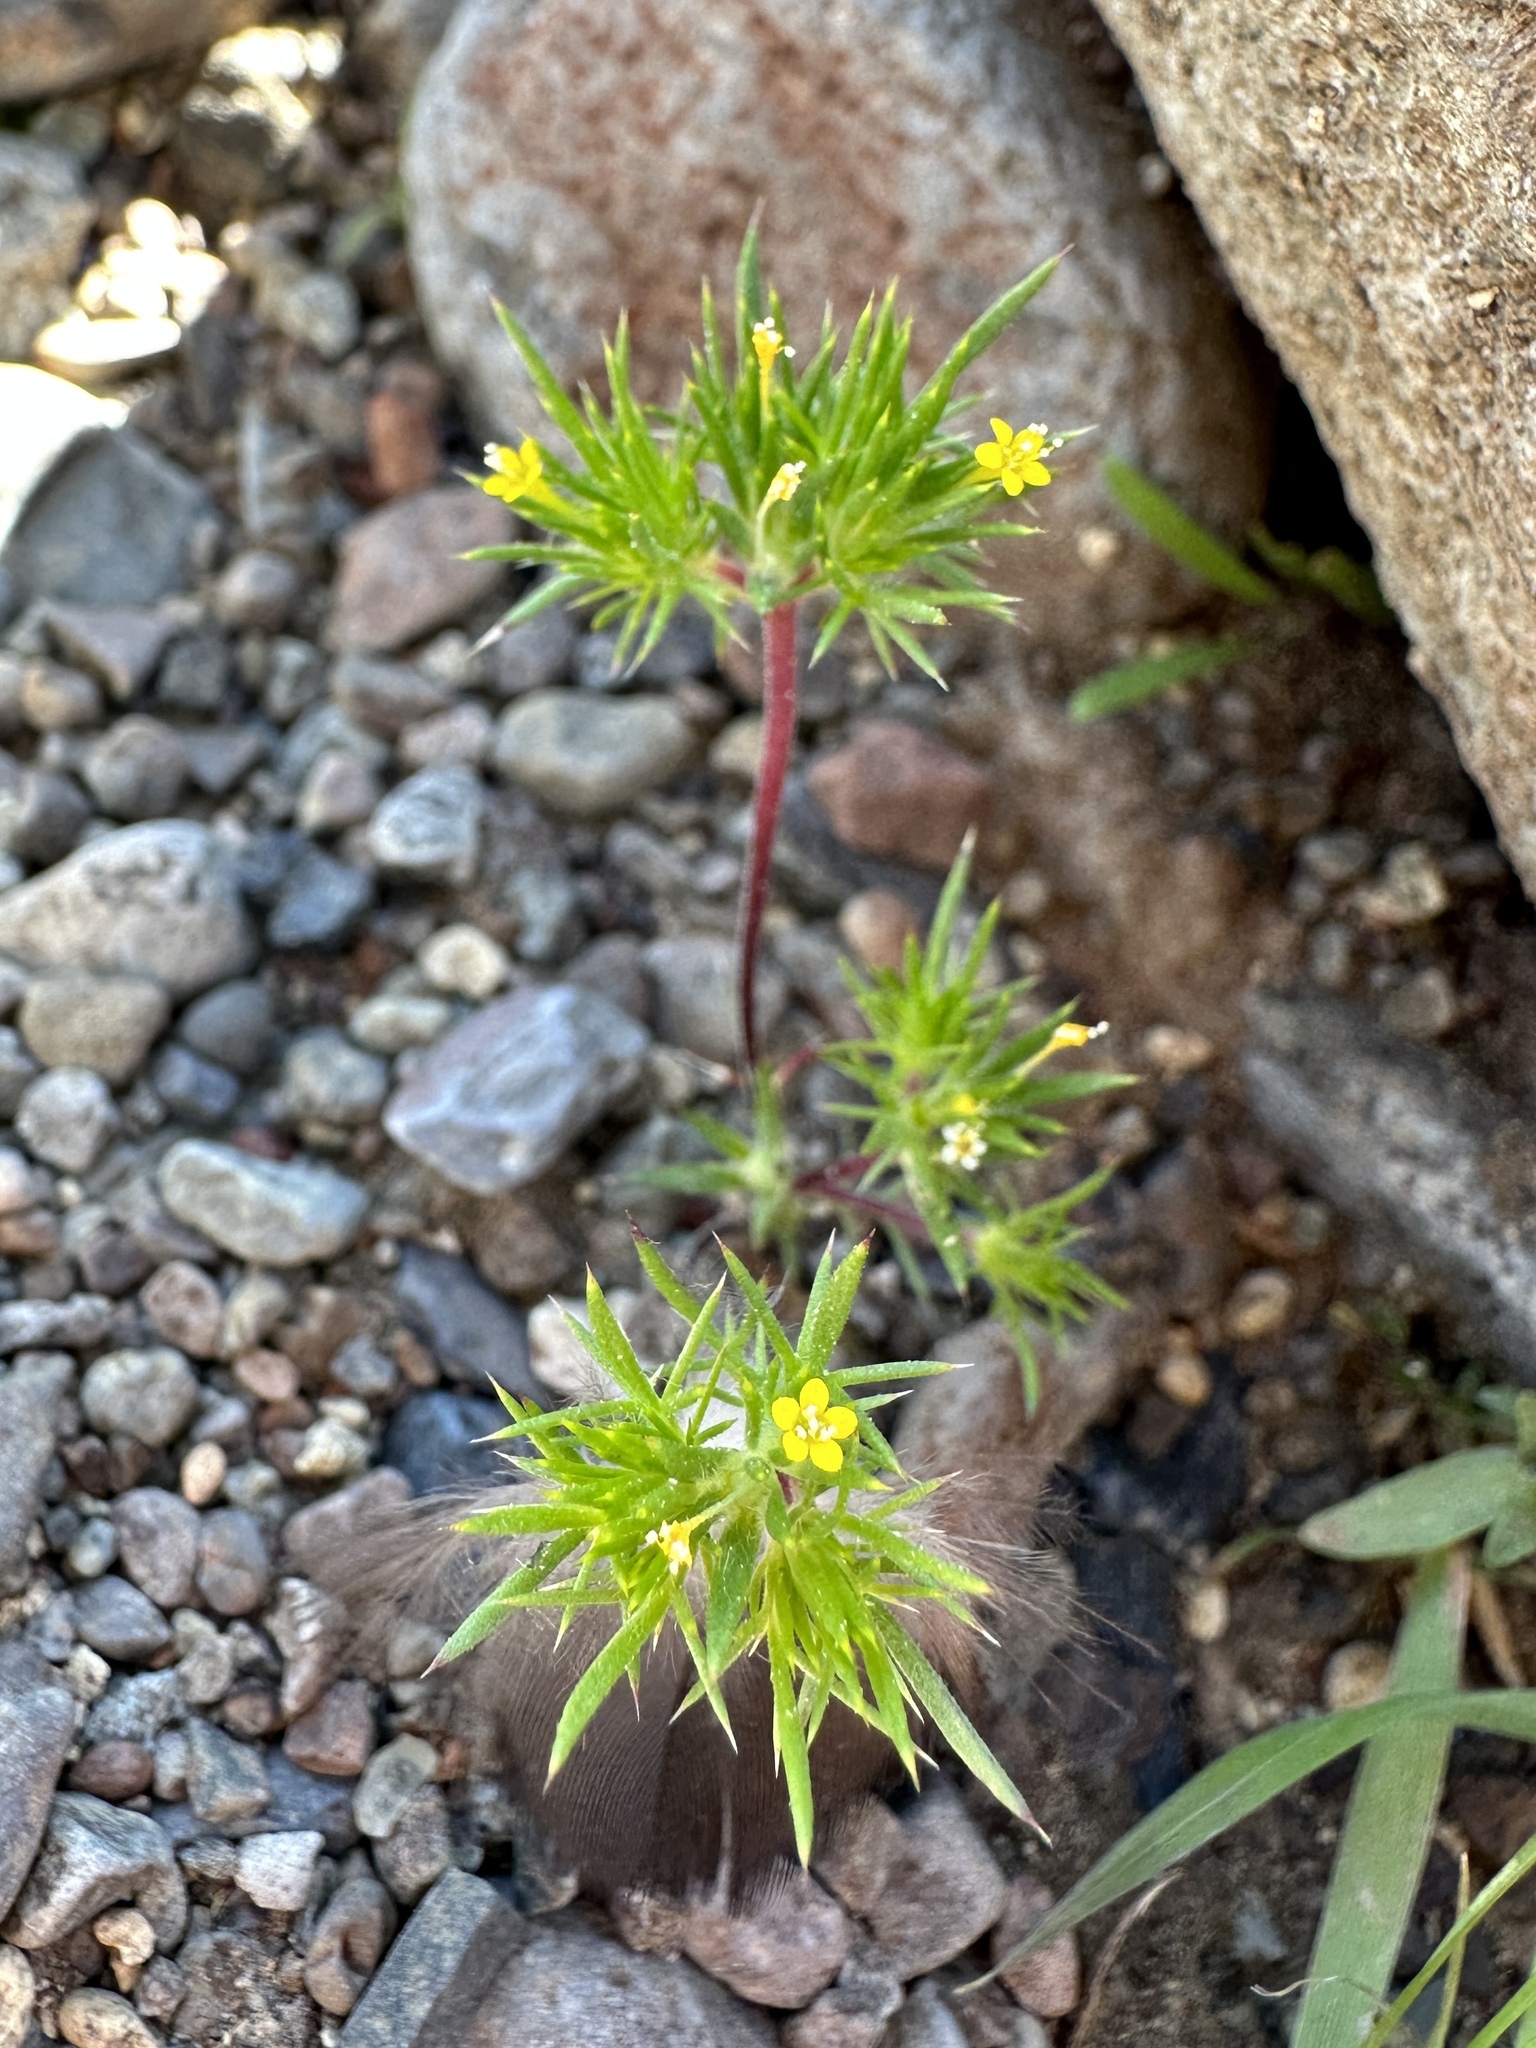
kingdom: Plantae
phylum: Tracheophyta
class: Magnoliopsida
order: Ericales
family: Polemoniaceae
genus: Navarretia
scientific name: Navarretia breweri
